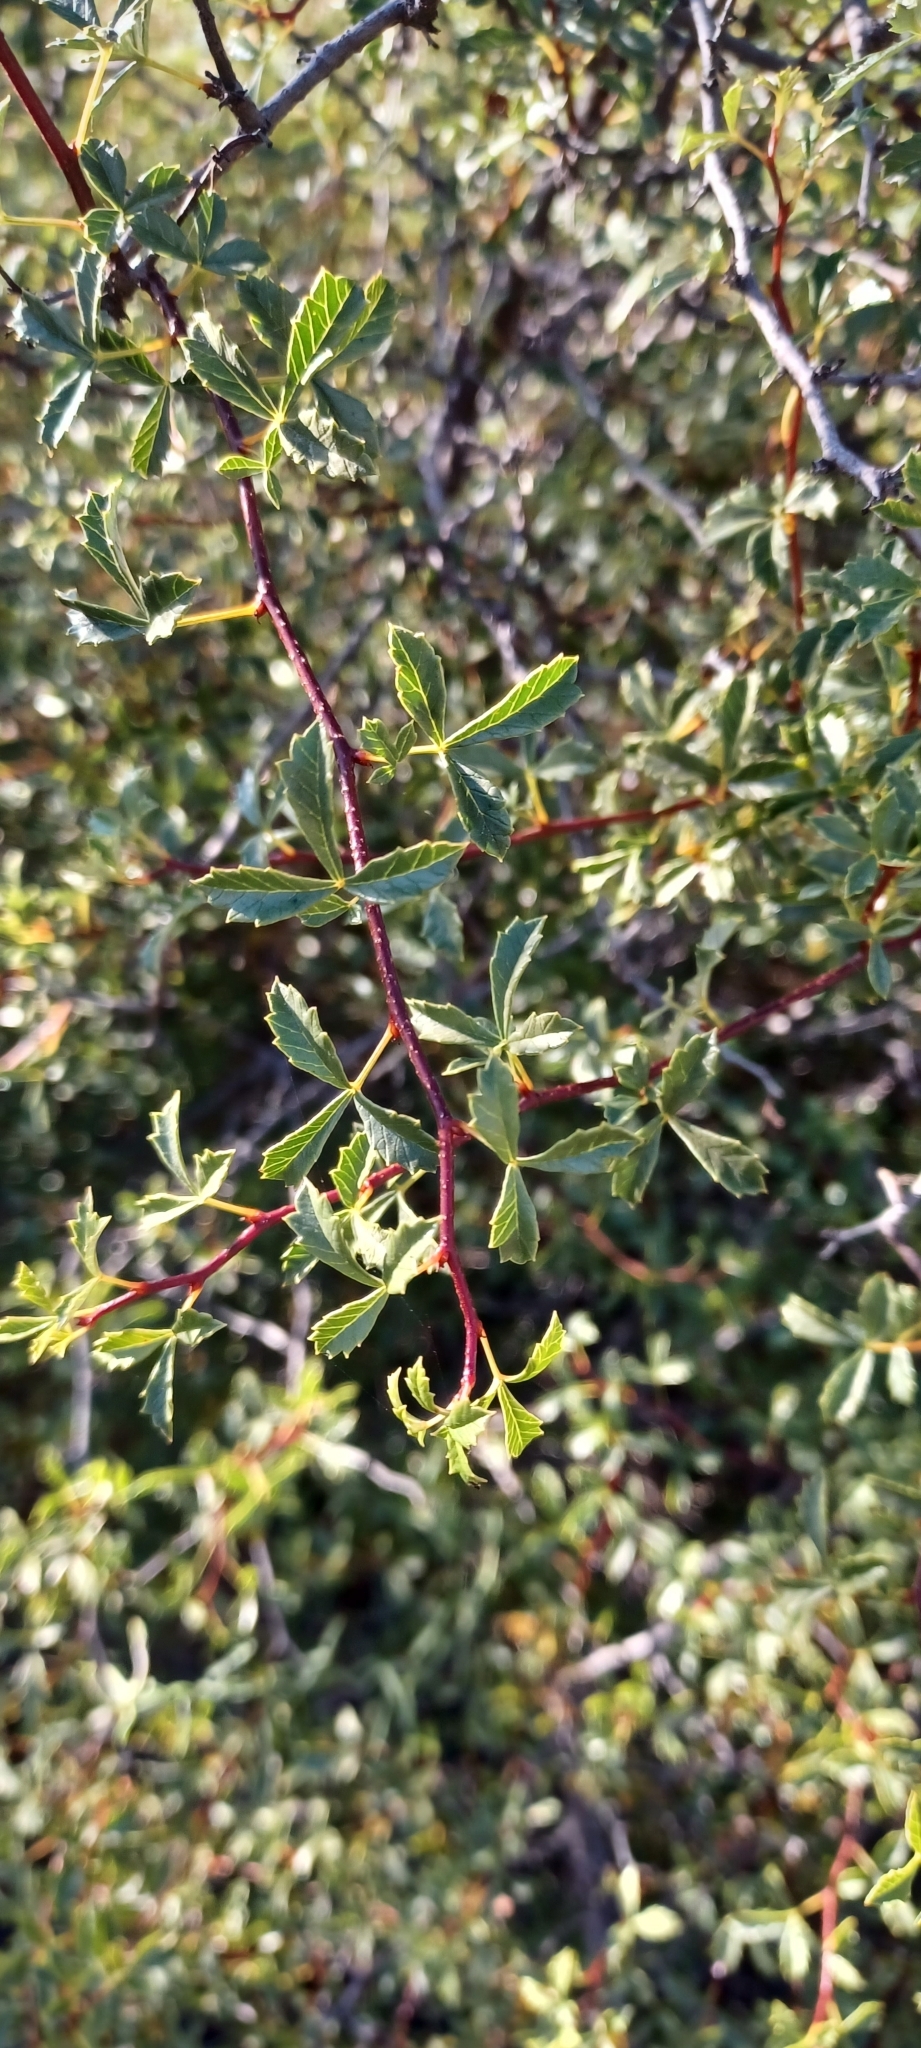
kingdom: Plantae
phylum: Tracheophyta
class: Magnoliopsida
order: Sapindales
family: Anacardiaceae
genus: Searsia
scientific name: Searsia dissecta
